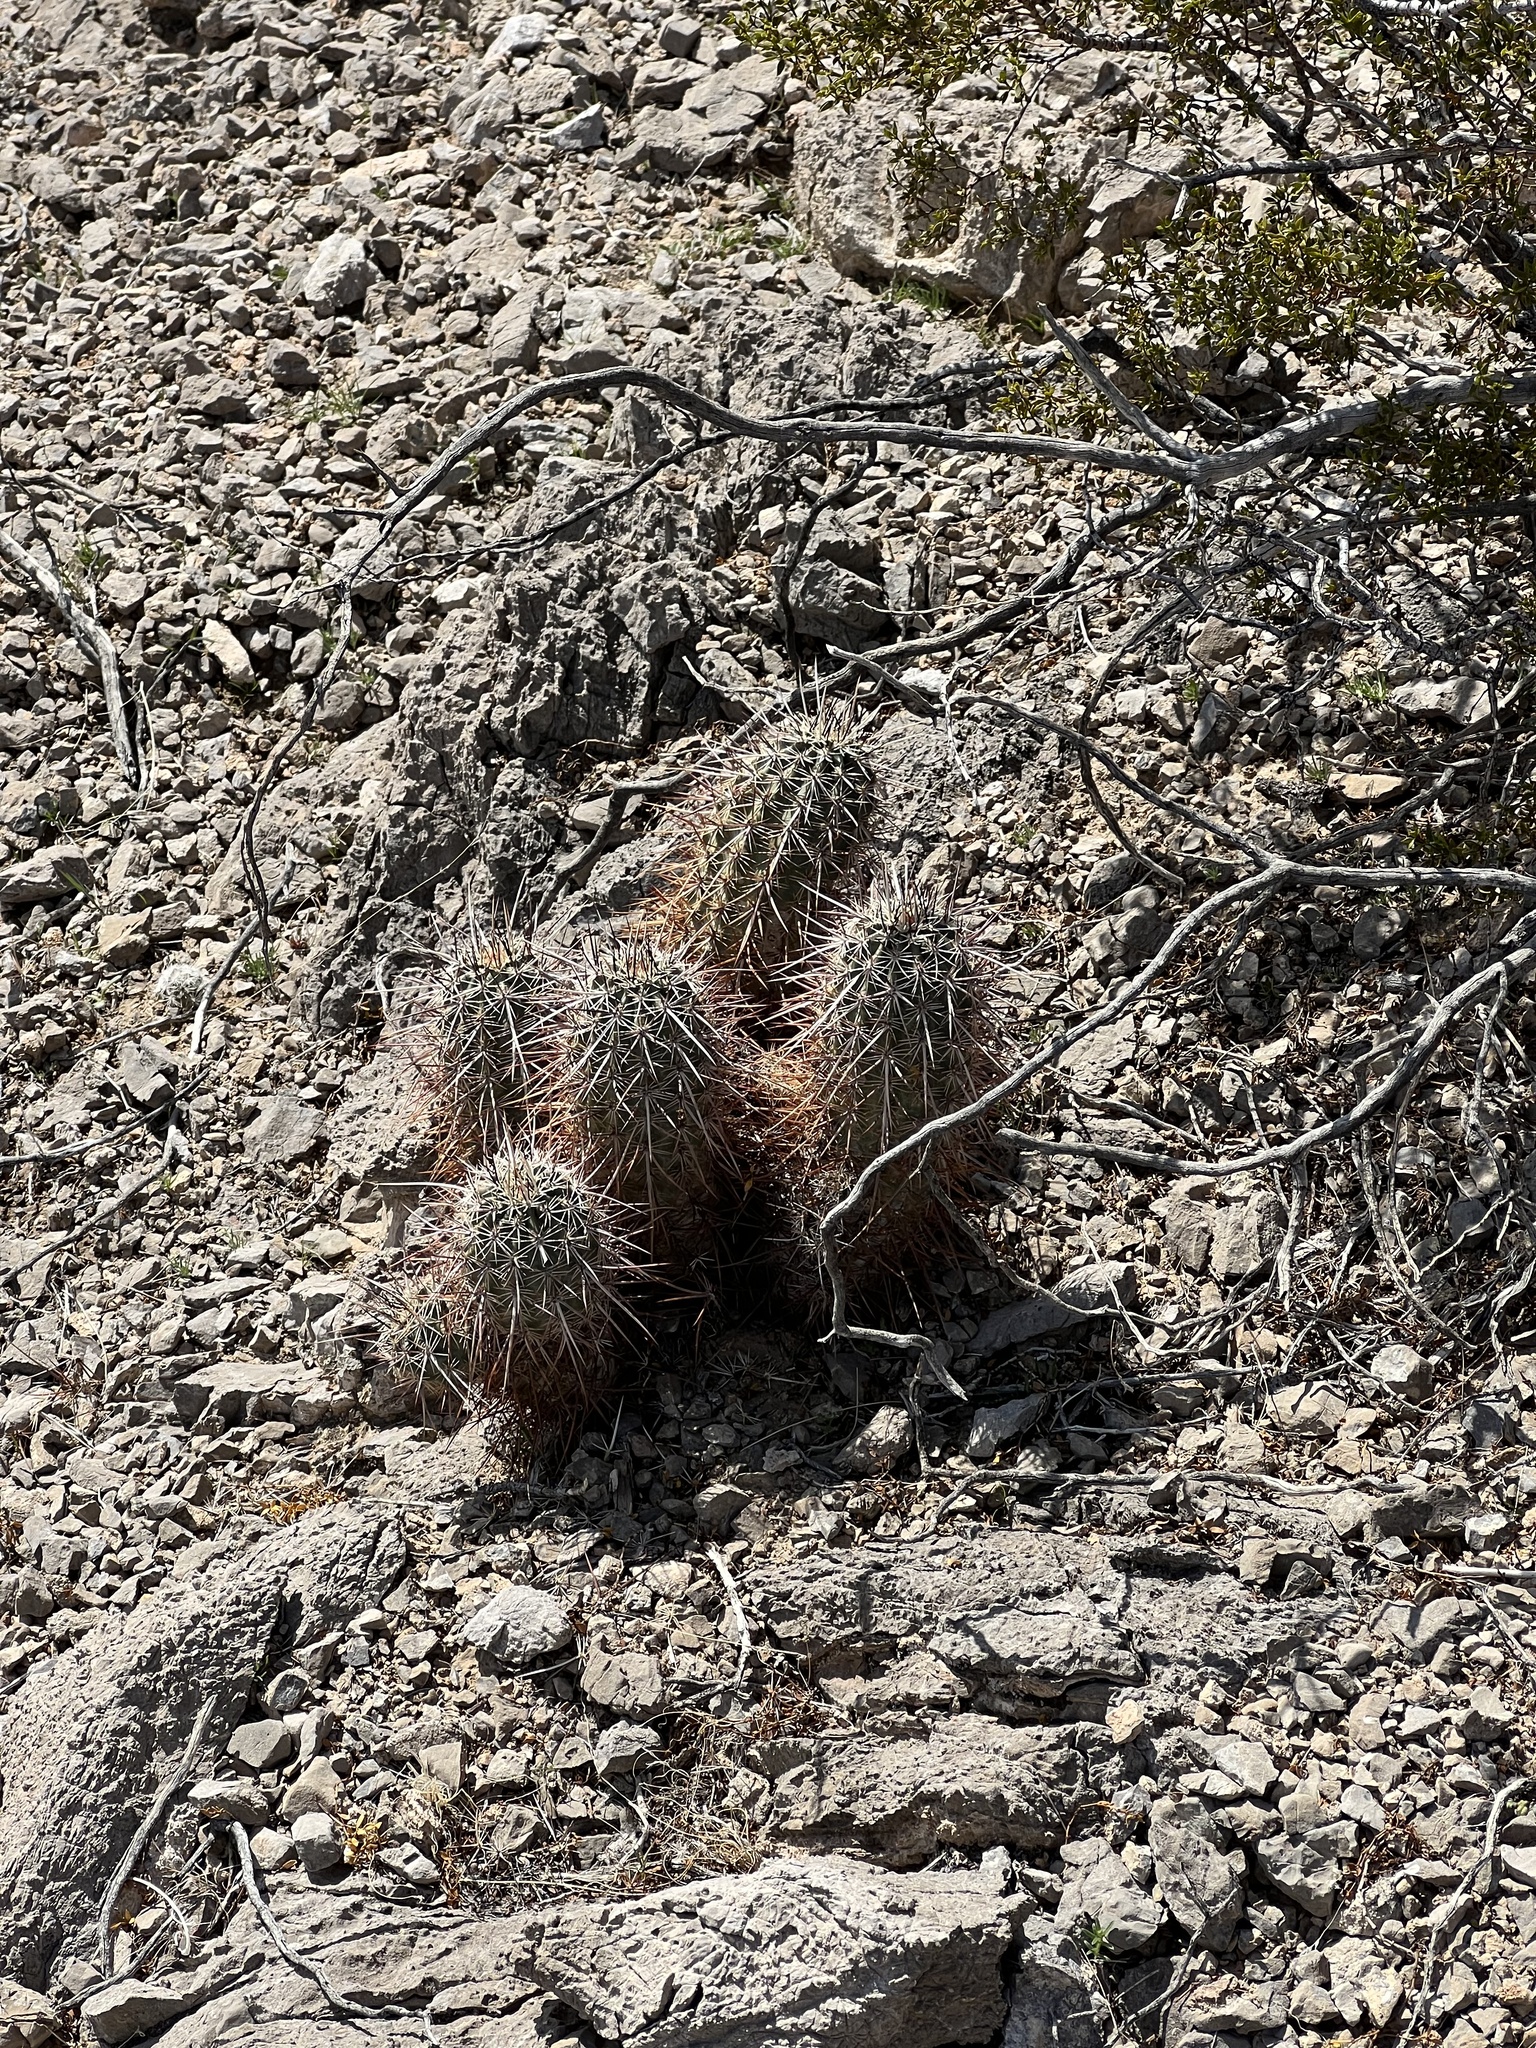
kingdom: Plantae
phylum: Tracheophyta
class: Magnoliopsida
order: Caryophyllales
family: Cactaceae
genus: Echinocereus
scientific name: Echinocereus engelmannii
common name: Engelmann's hedgehog cactus
